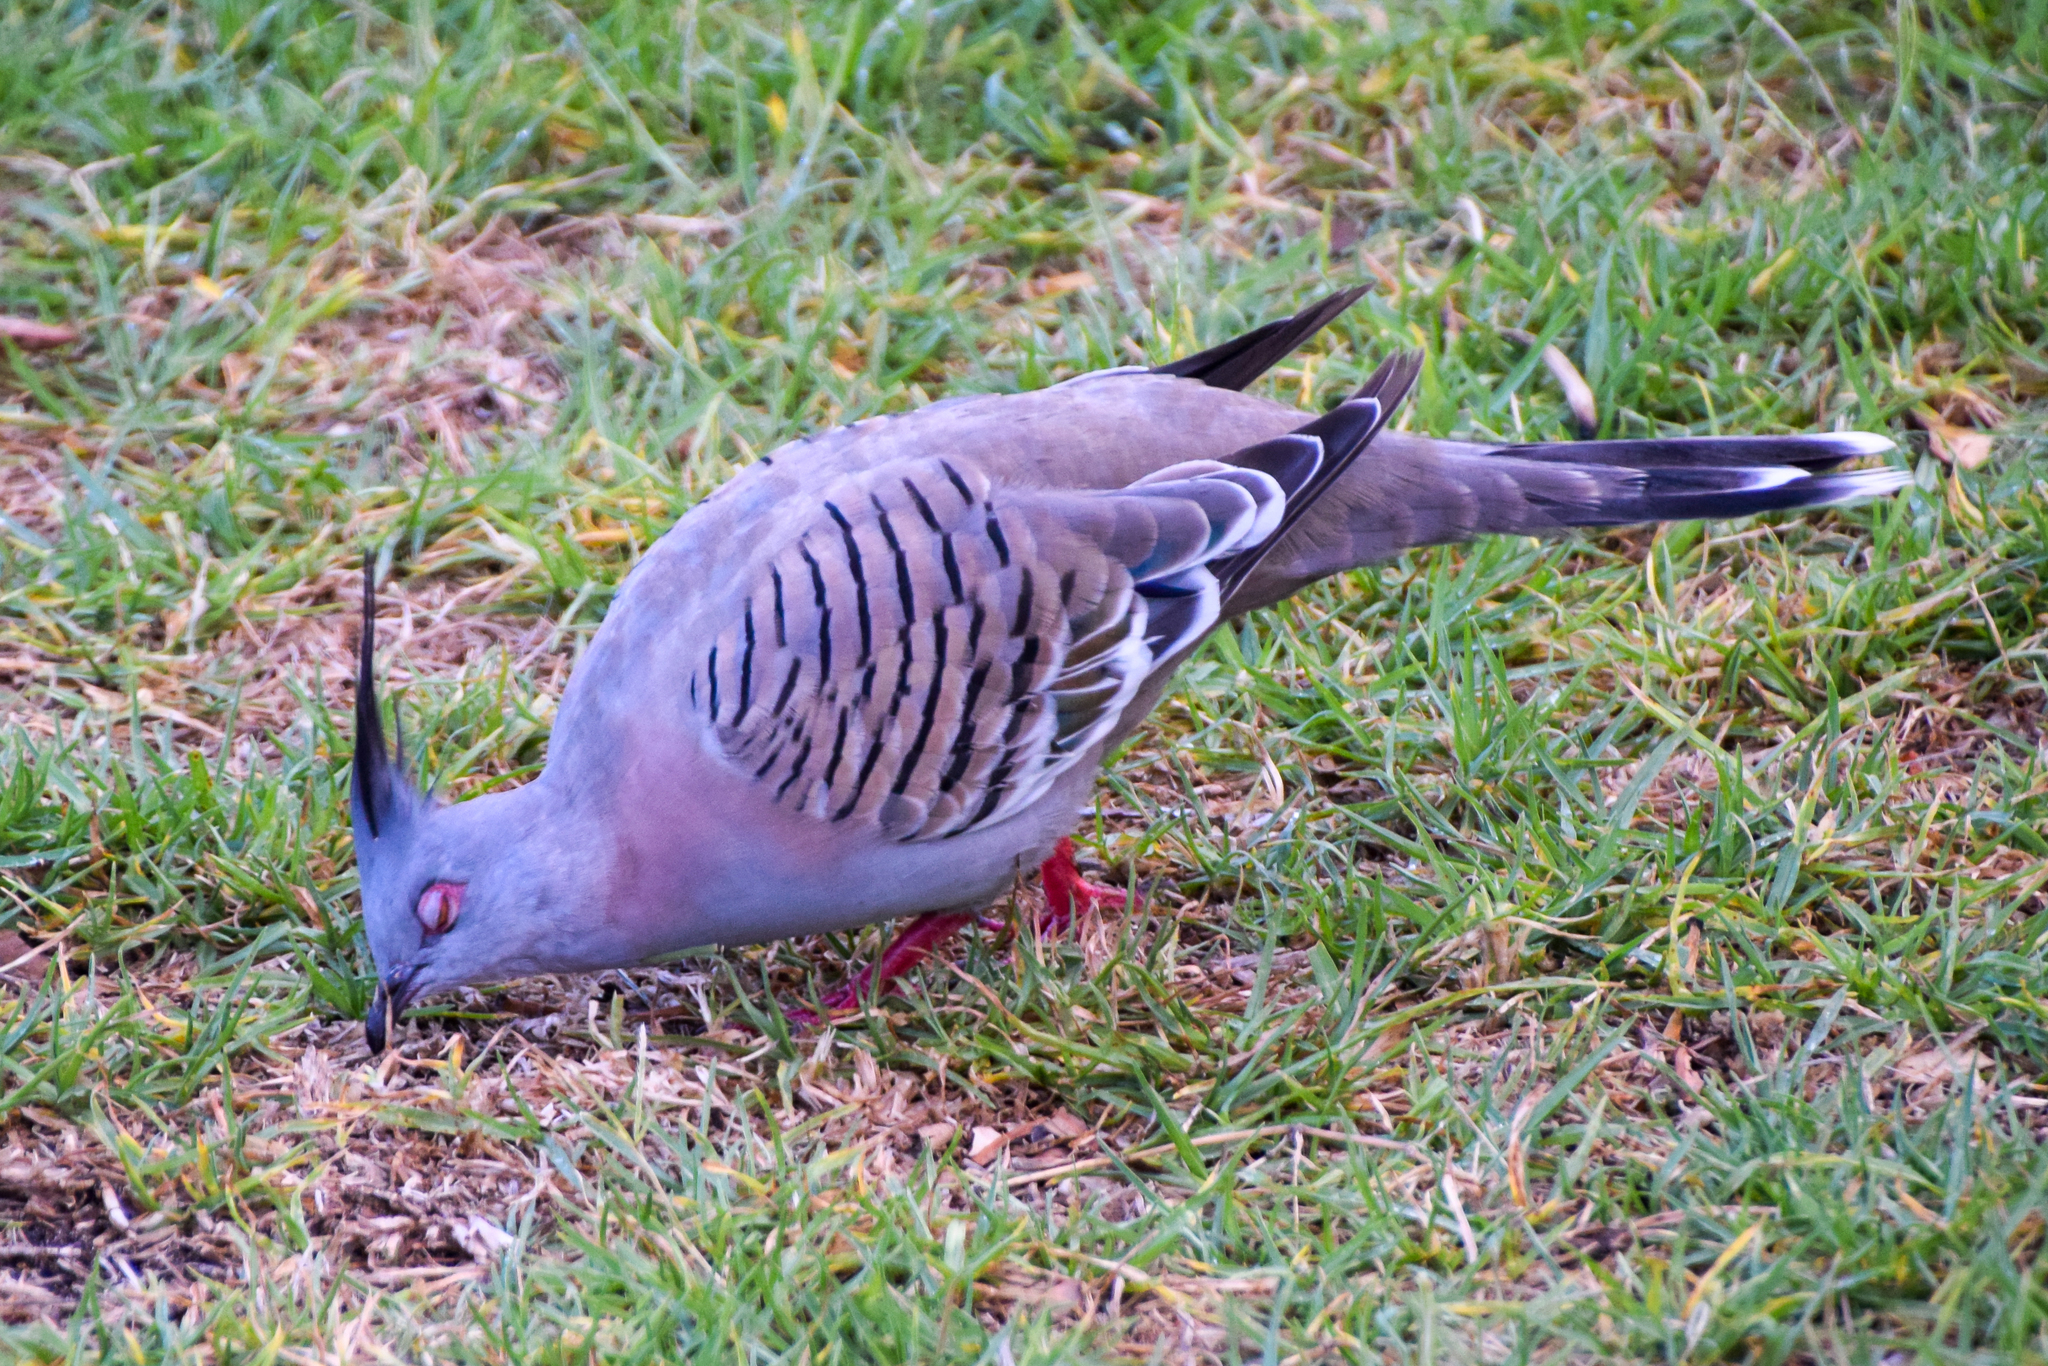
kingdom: Animalia
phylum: Chordata
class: Aves
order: Columbiformes
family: Columbidae
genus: Ocyphaps
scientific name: Ocyphaps lophotes
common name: Crested pigeon
